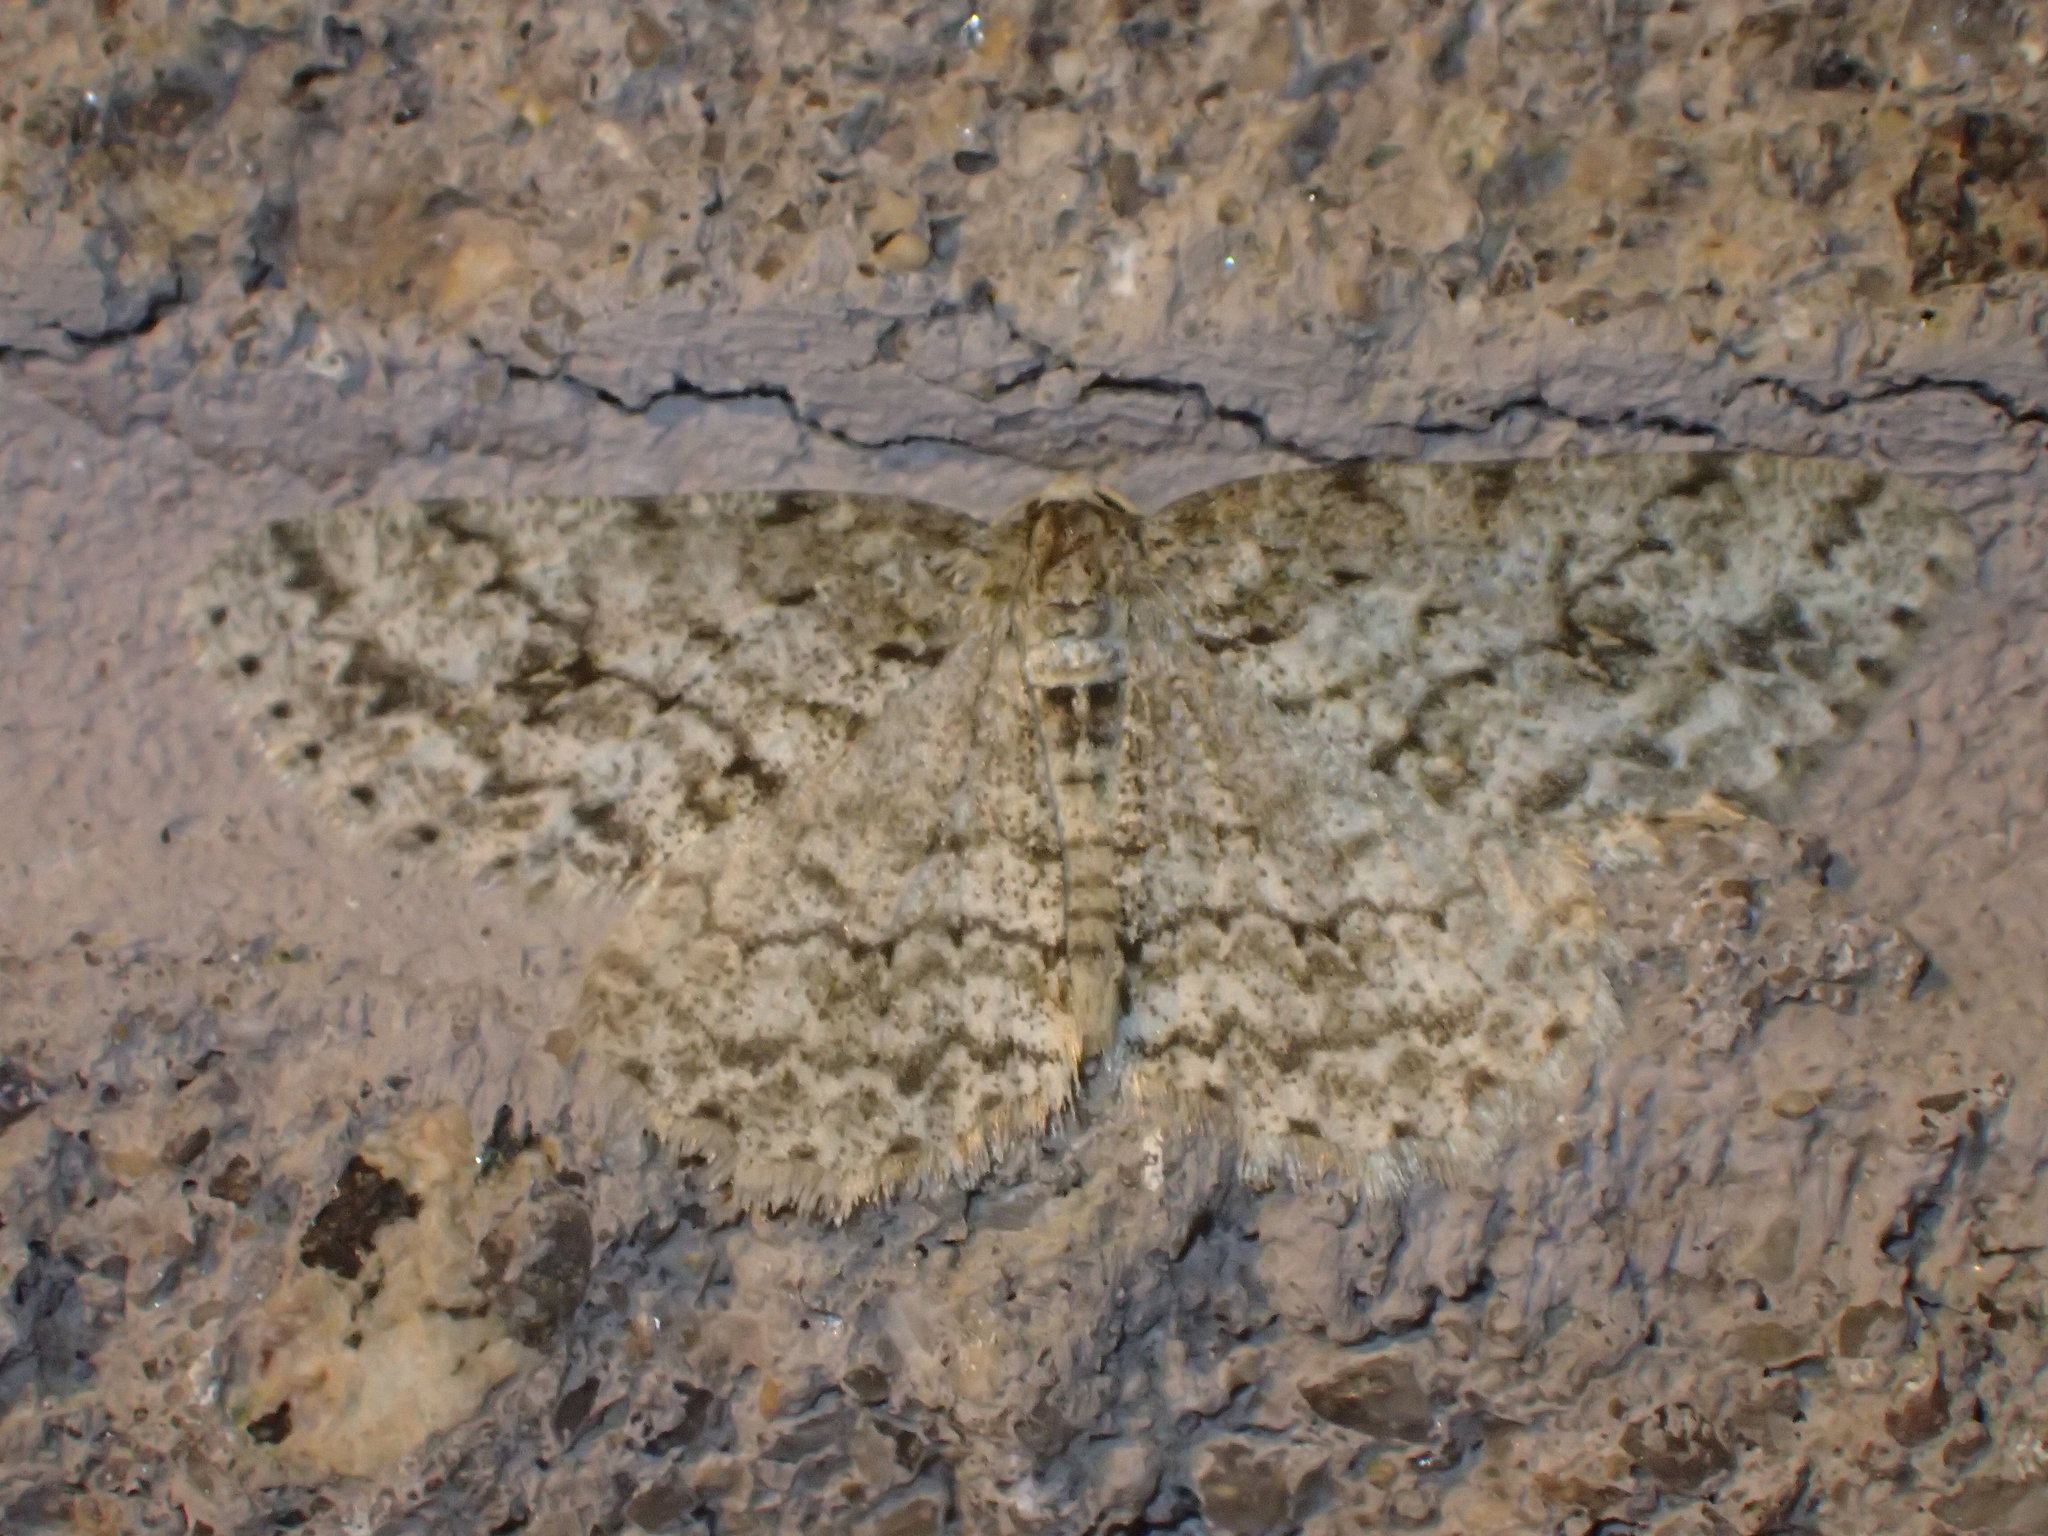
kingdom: Animalia
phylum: Arthropoda
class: Insecta
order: Lepidoptera
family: Geometridae
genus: Ectropis
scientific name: Ectropis crepuscularia
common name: Engrailed
